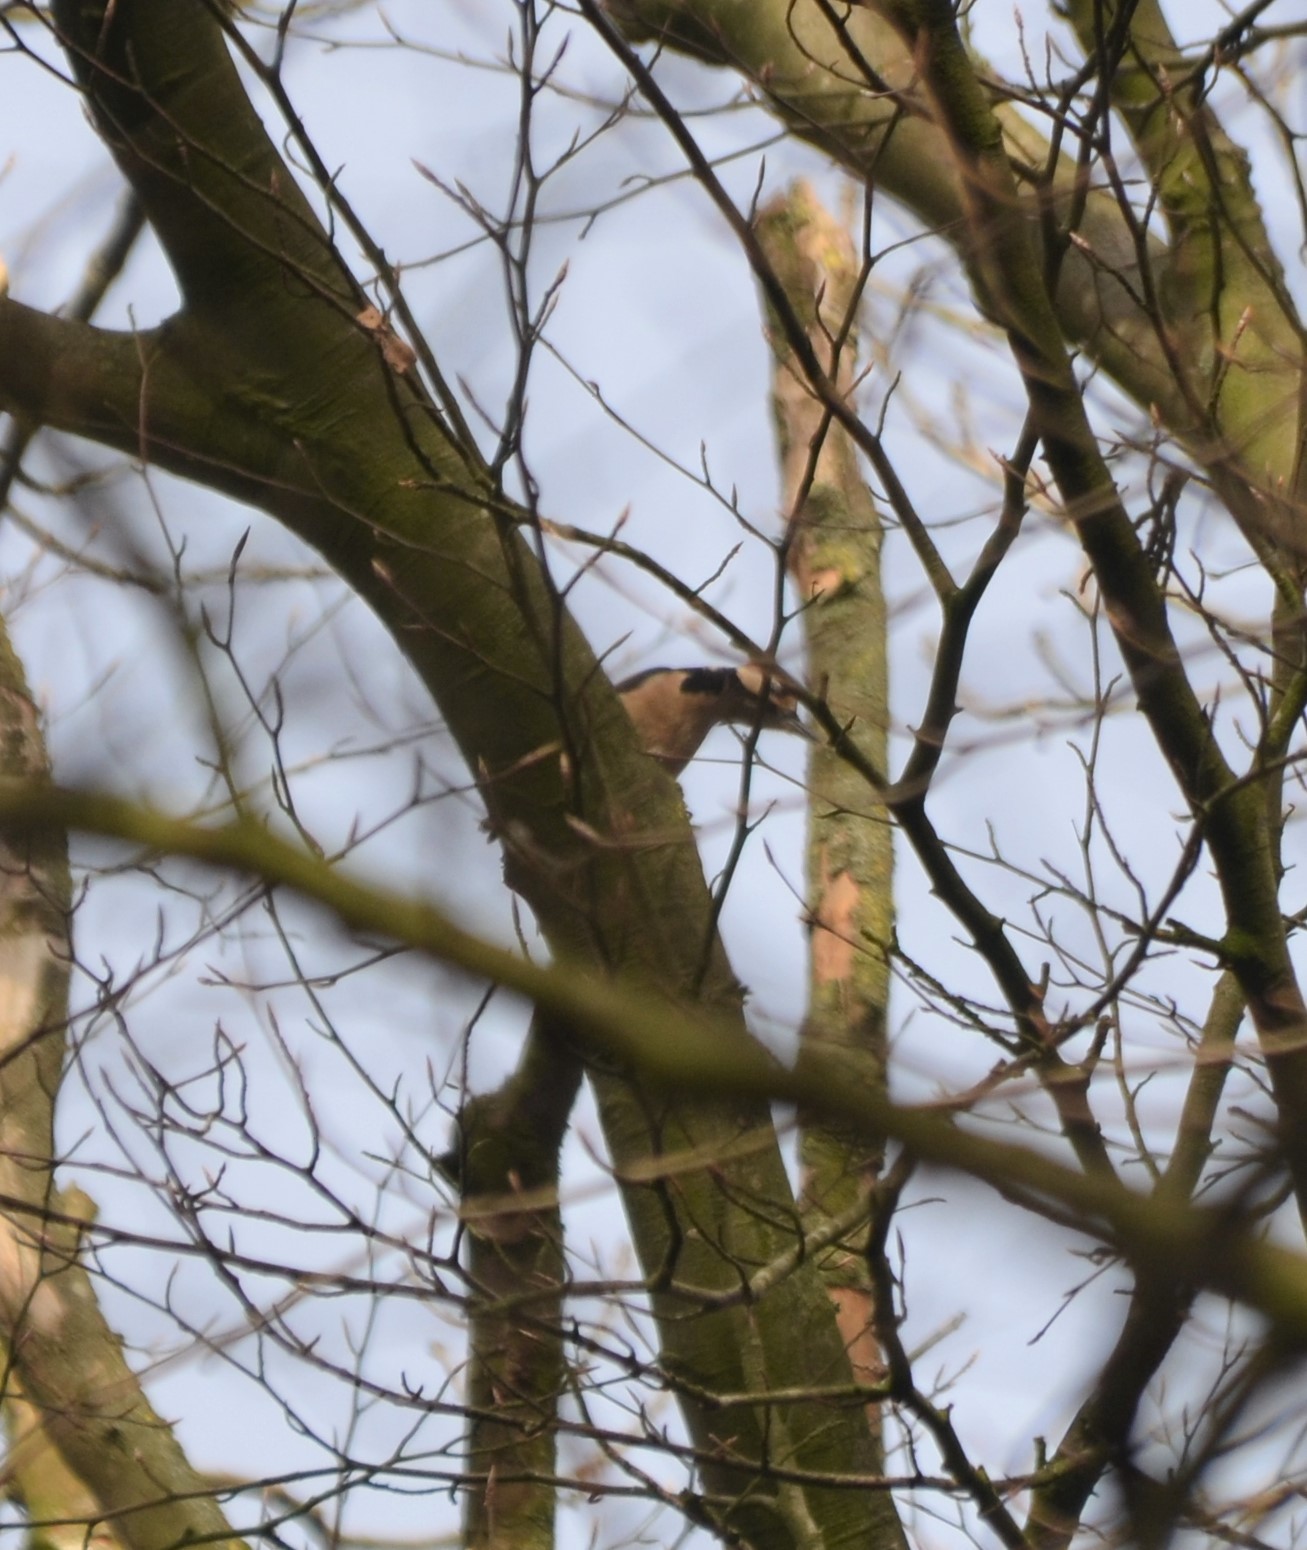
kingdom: Animalia
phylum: Chordata
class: Aves
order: Piciformes
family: Picidae
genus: Dendrocopos
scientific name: Dendrocopos major
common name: Great spotted woodpecker
